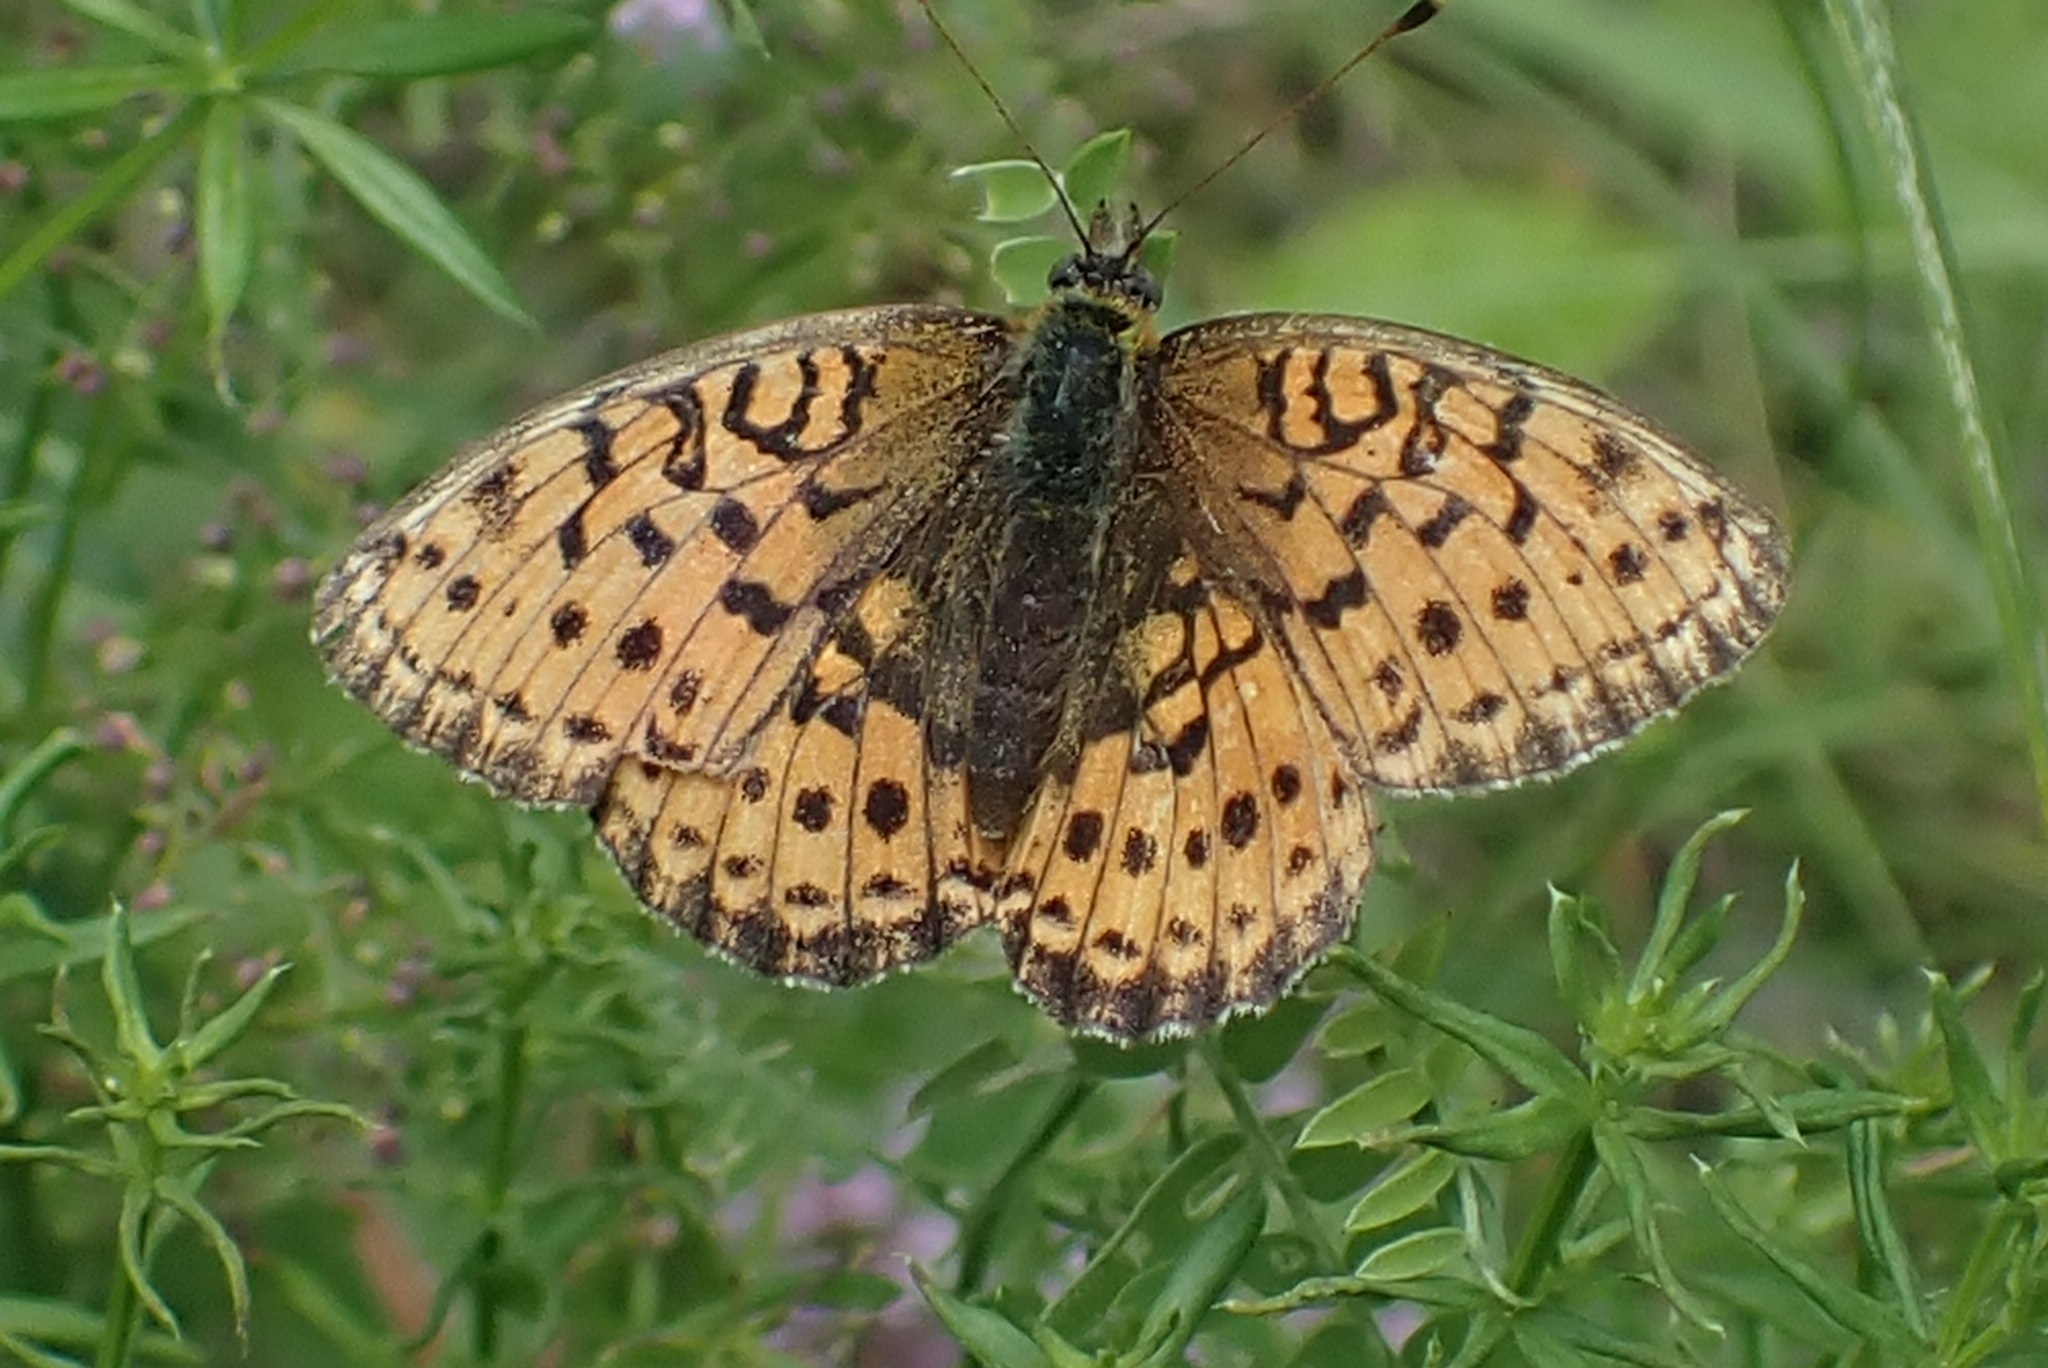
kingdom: Animalia
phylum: Arthropoda
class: Insecta
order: Lepidoptera
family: Nymphalidae
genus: Brenthis
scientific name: Brenthis ino
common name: Lesser marbled fritillary
